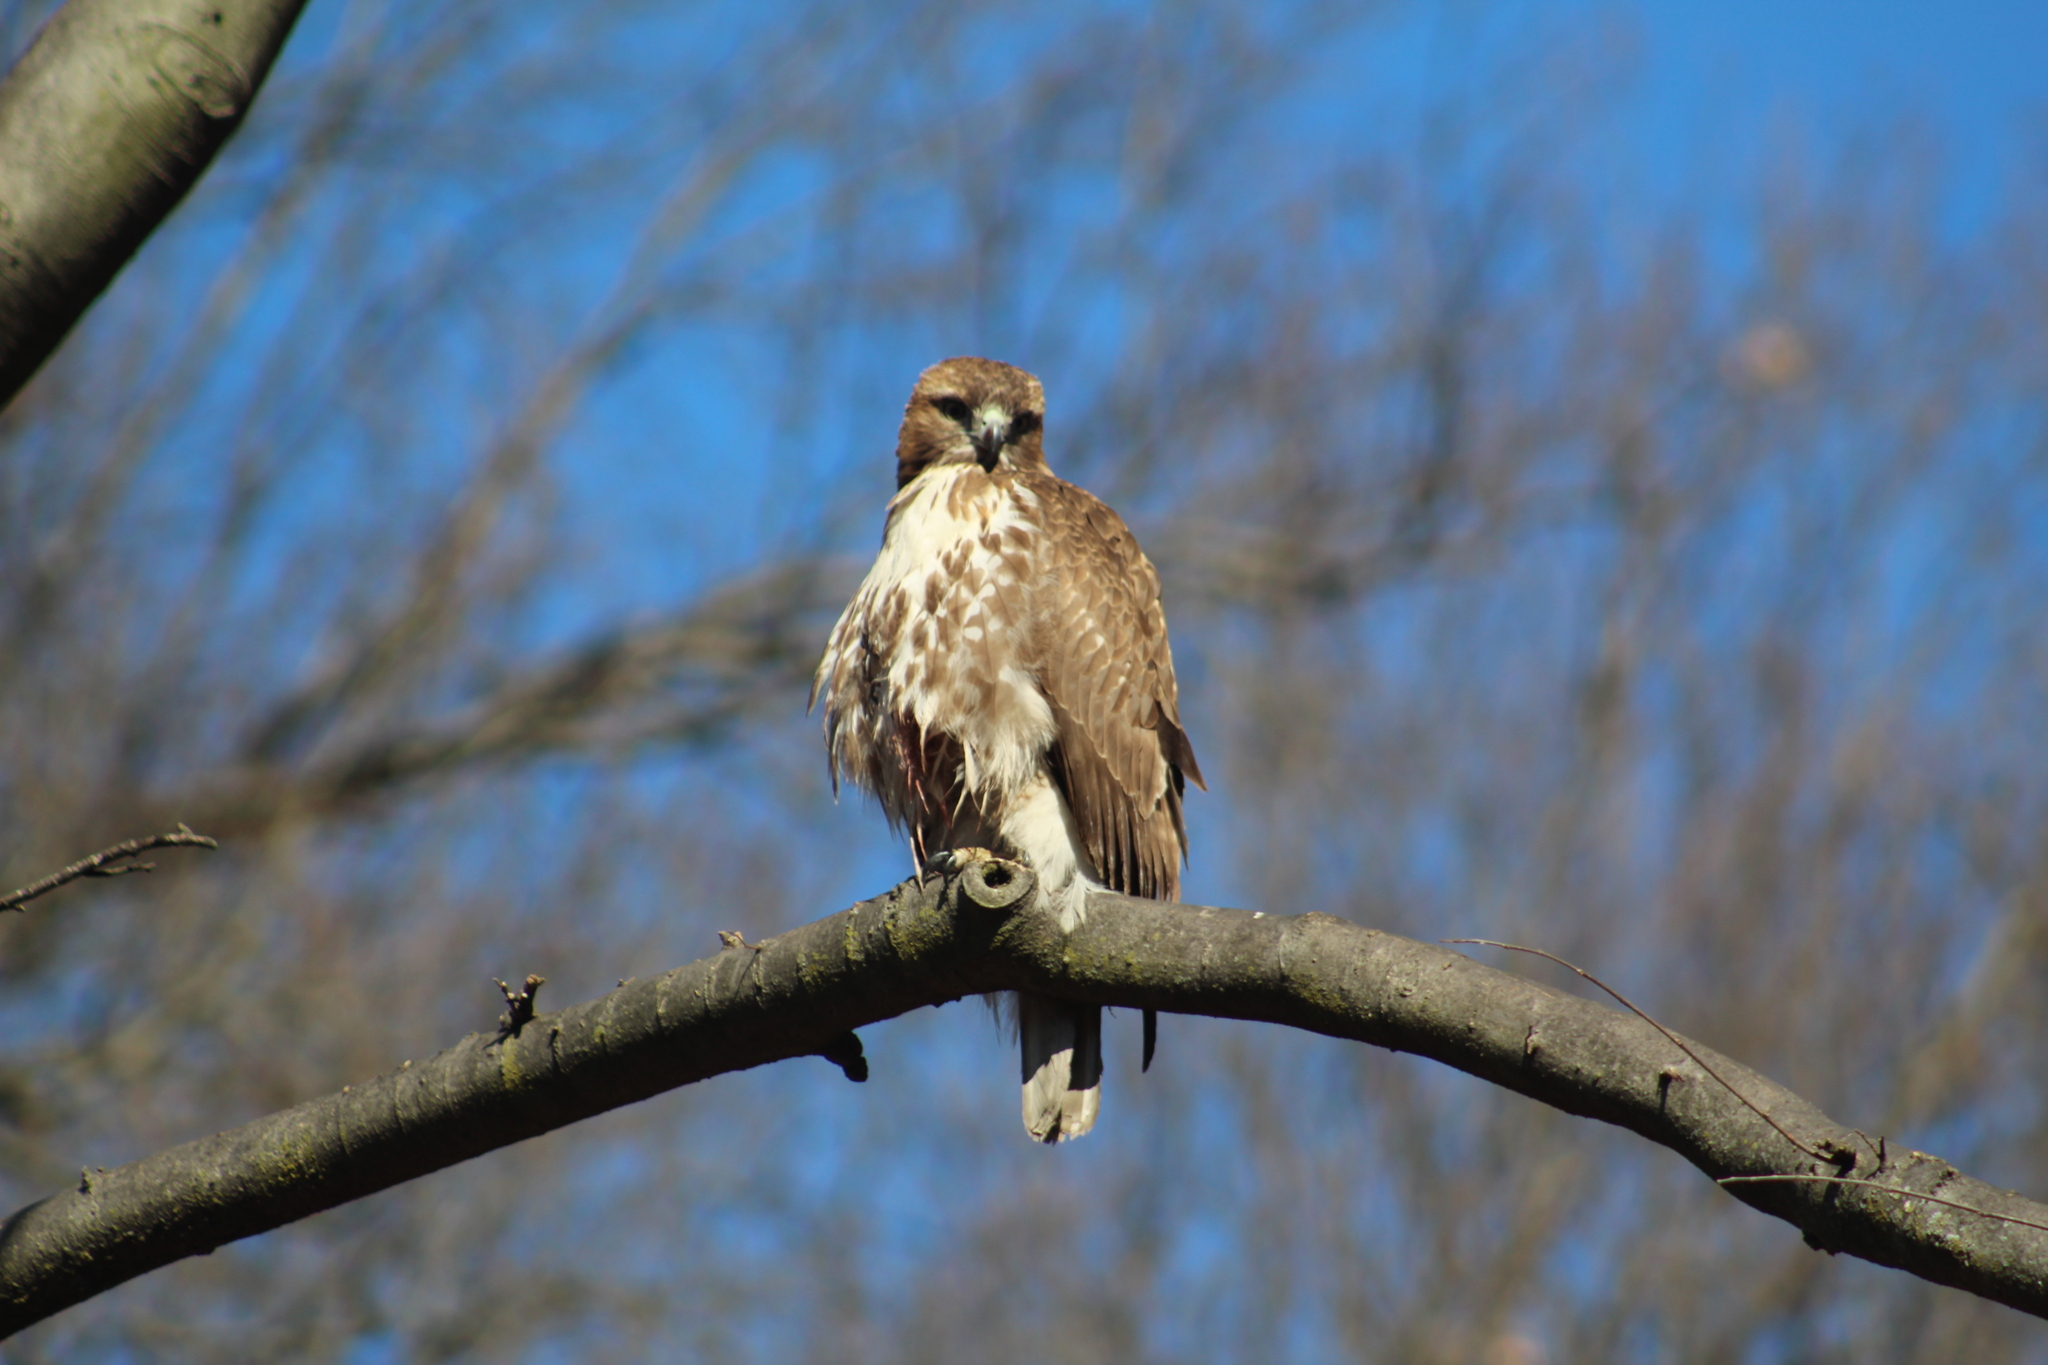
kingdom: Animalia
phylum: Chordata
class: Aves
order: Accipitriformes
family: Accipitridae
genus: Buteo
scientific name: Buteo jamaicensis
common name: Red-tailed hawk
